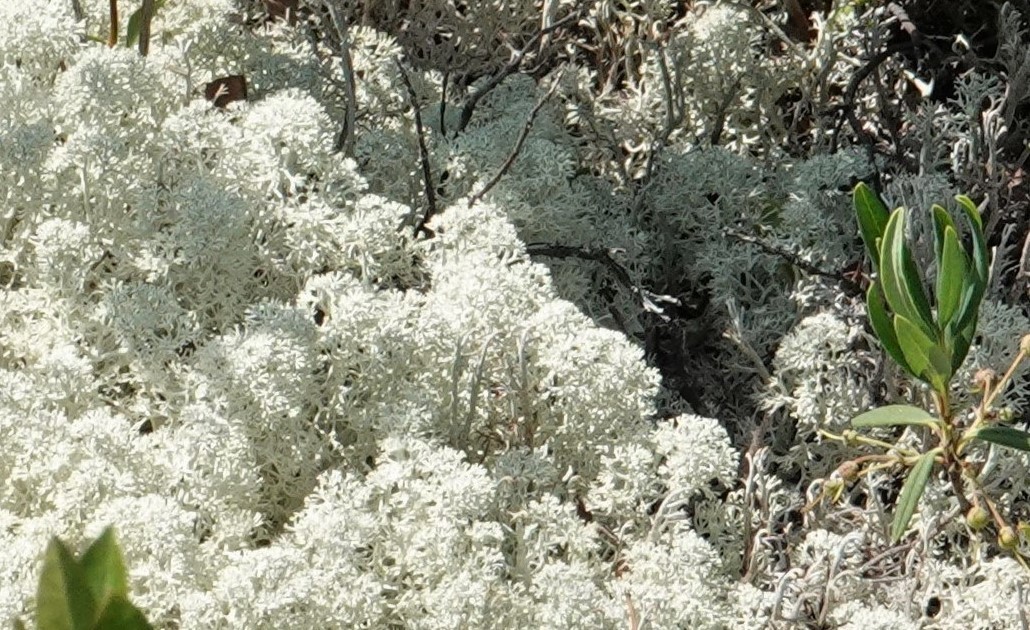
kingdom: Fungi
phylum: Ascomycota
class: Lecanoromycetes
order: Lecanorales
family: Cladoniaceae
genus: Cladonia
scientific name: Cladonia stellaris
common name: Star-tipped reindeer lichen
